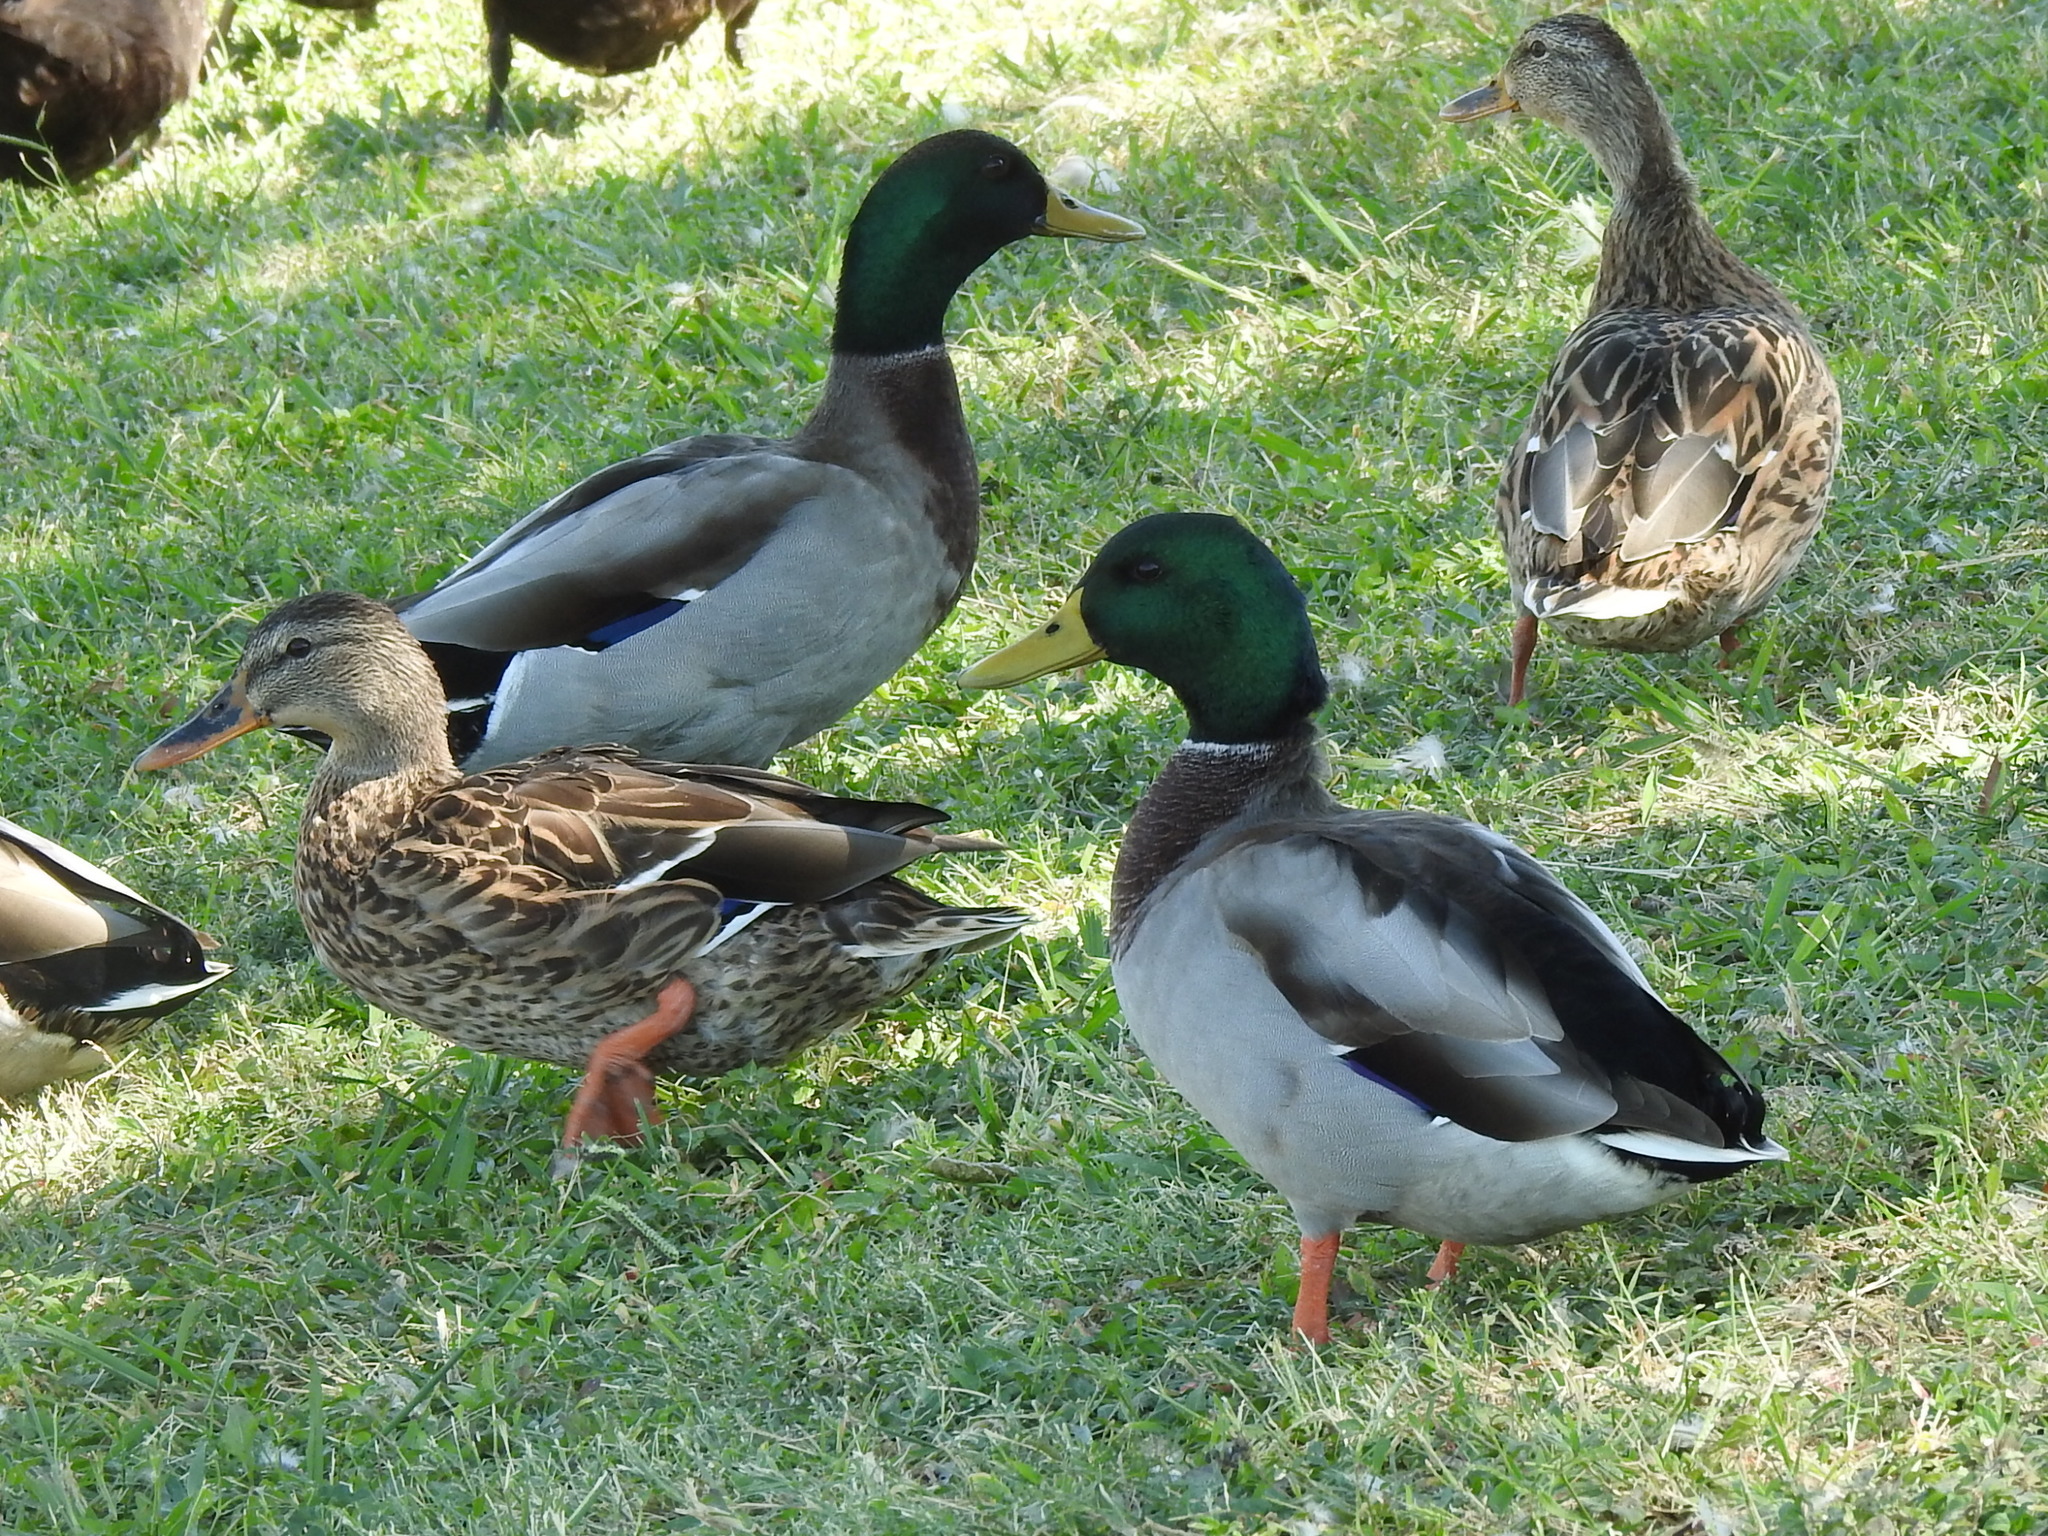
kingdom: Animalia
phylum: Chordata
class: Aves
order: Anseriformes
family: Anatidae
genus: Anas
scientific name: Anas platyrhynchos
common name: Mallard
